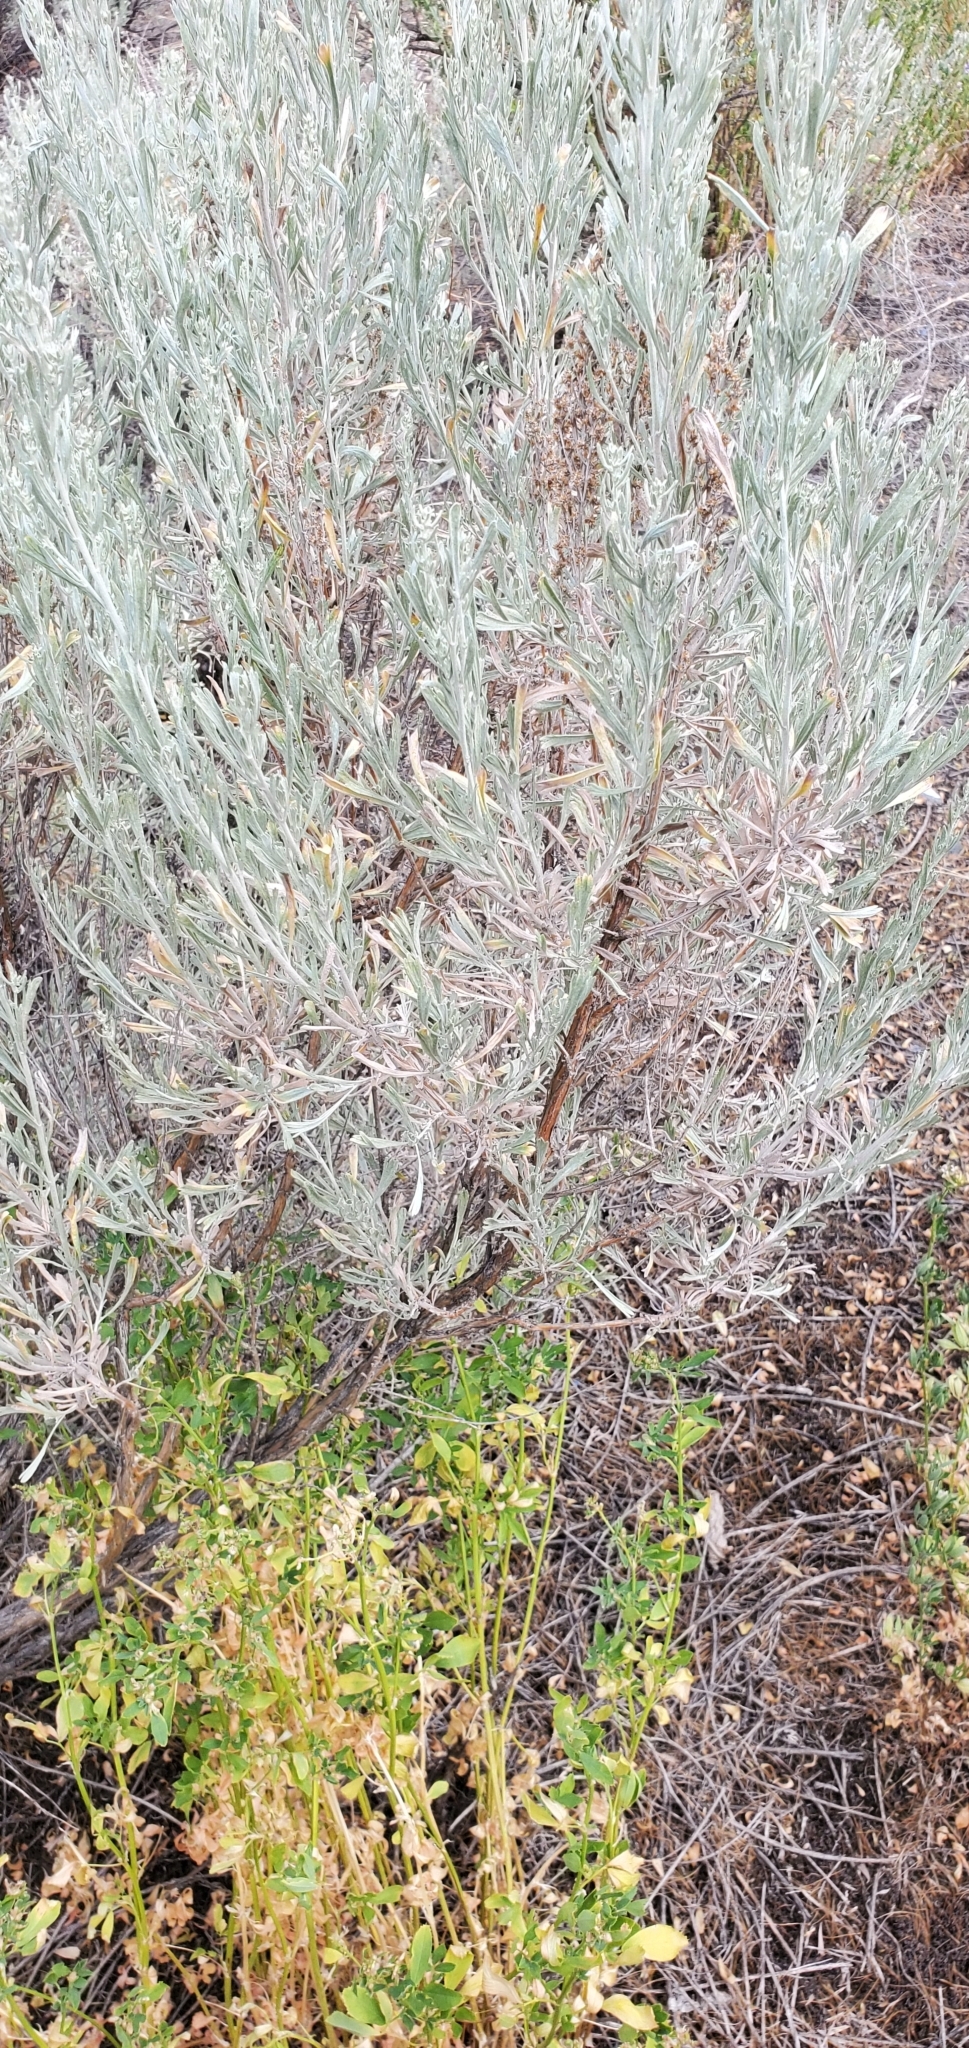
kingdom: Plantae
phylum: Tracheophyta
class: Magnoliopsida
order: Asterales
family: Asteraceae
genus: Artemisia
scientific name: Artemisia tridentata
